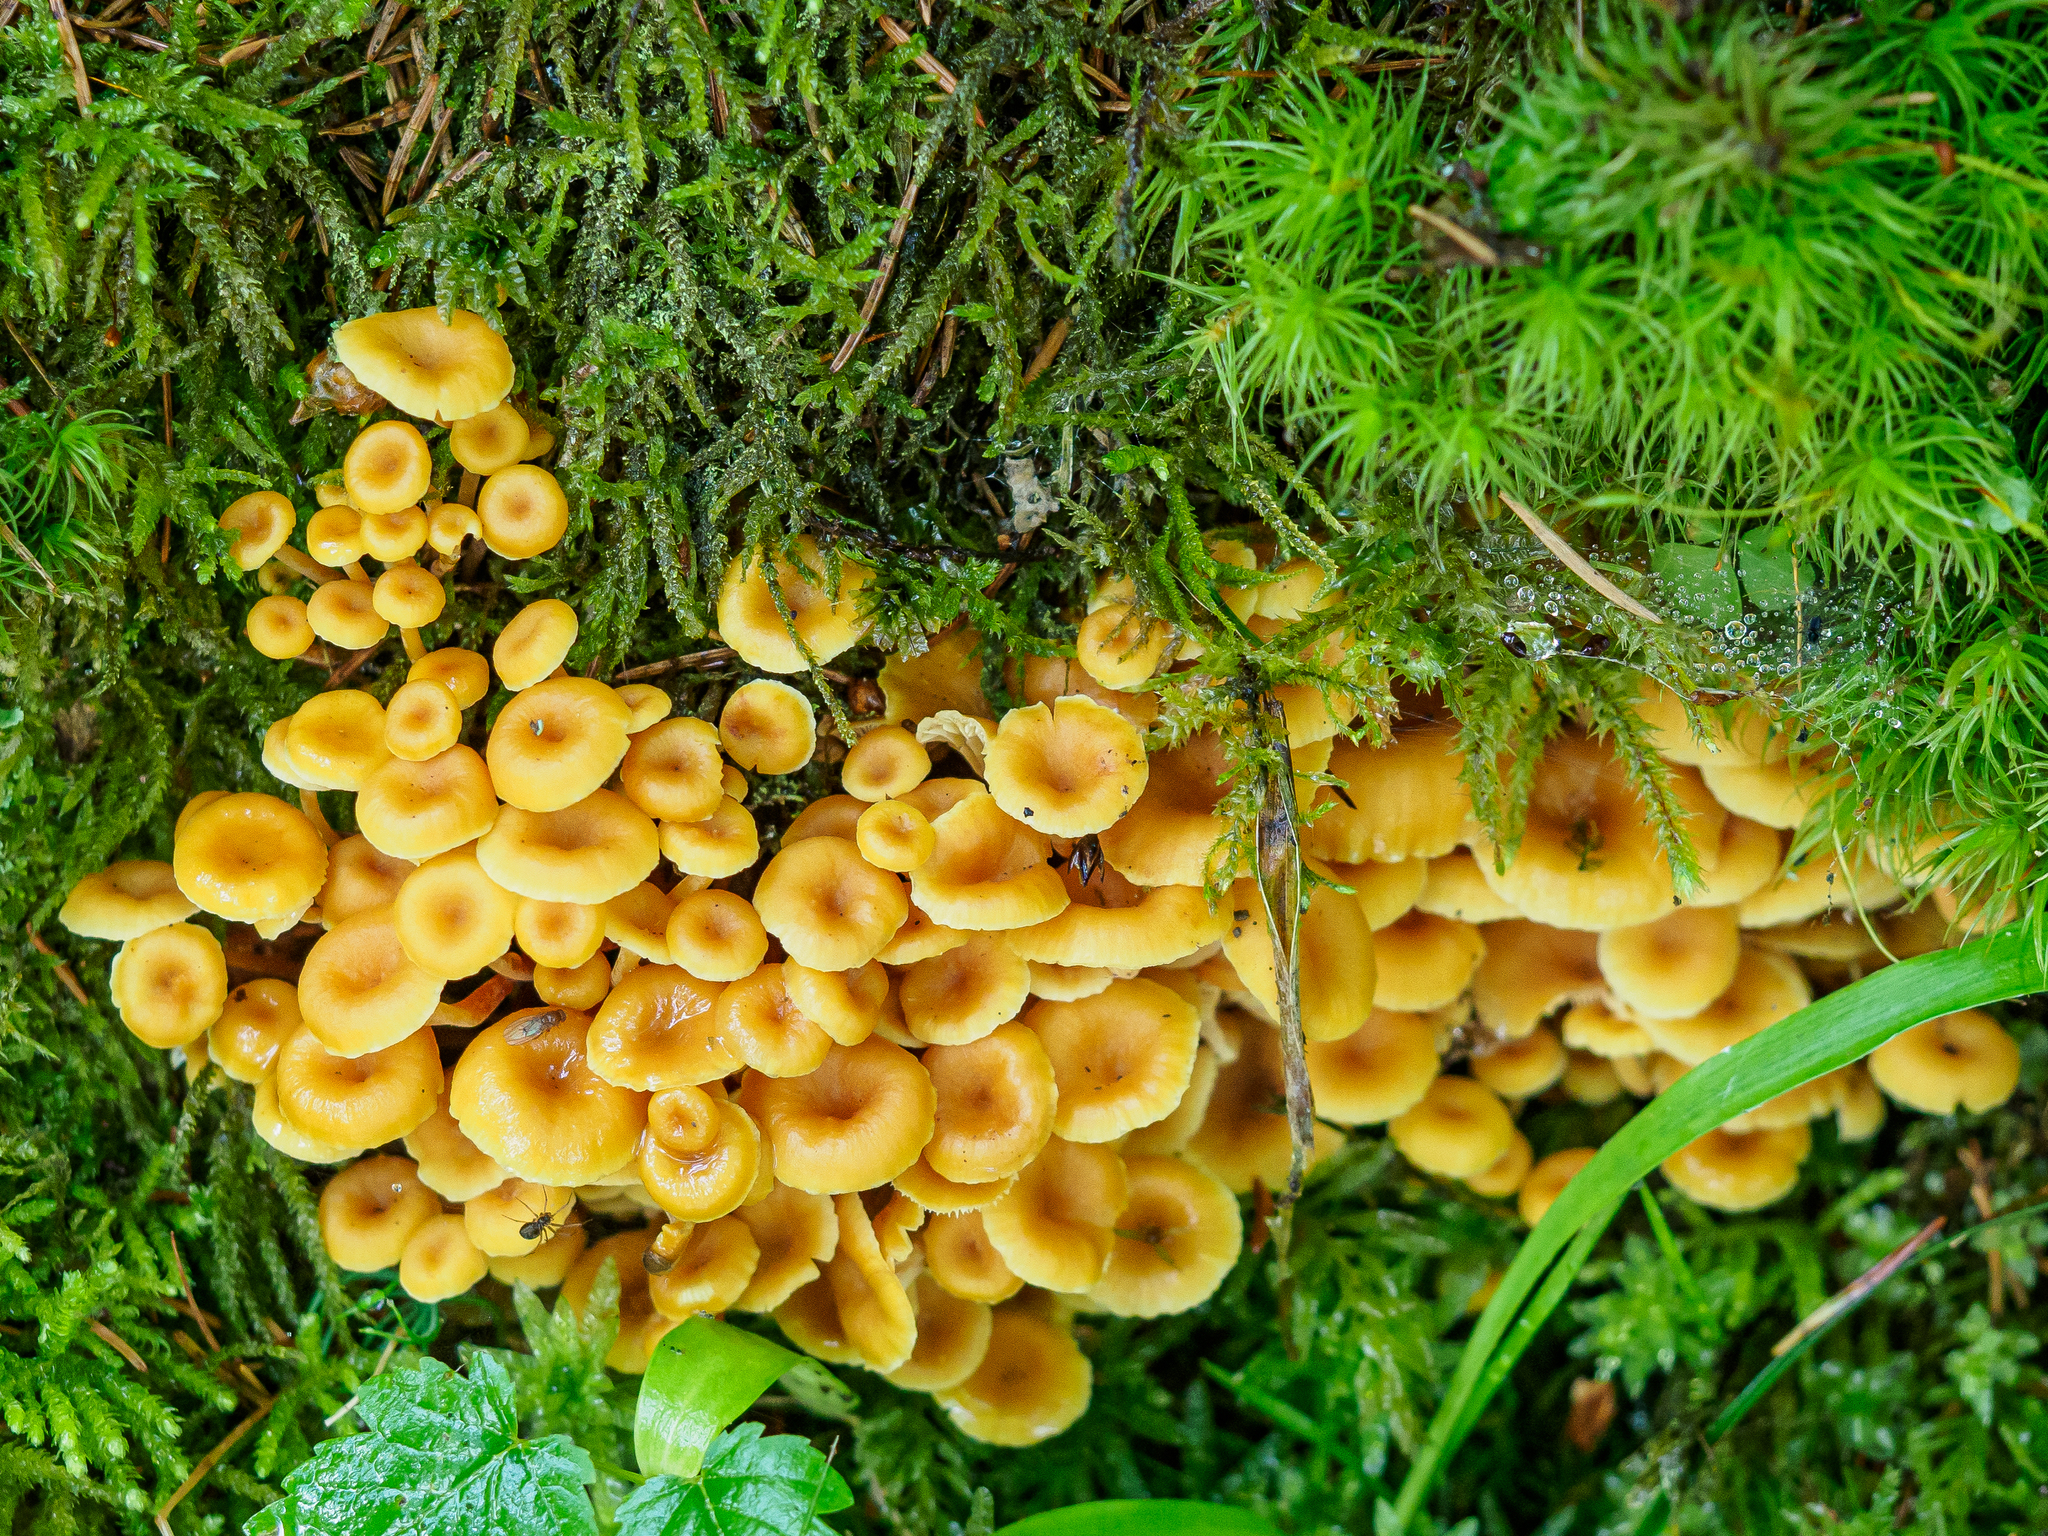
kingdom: Fungi
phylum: Basidiomycota
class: Agaricomycetes
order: Agaricales
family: Mycenaceae
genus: Xeromphalina
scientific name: Xeromphalina campanella
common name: Pinewood gingertail
